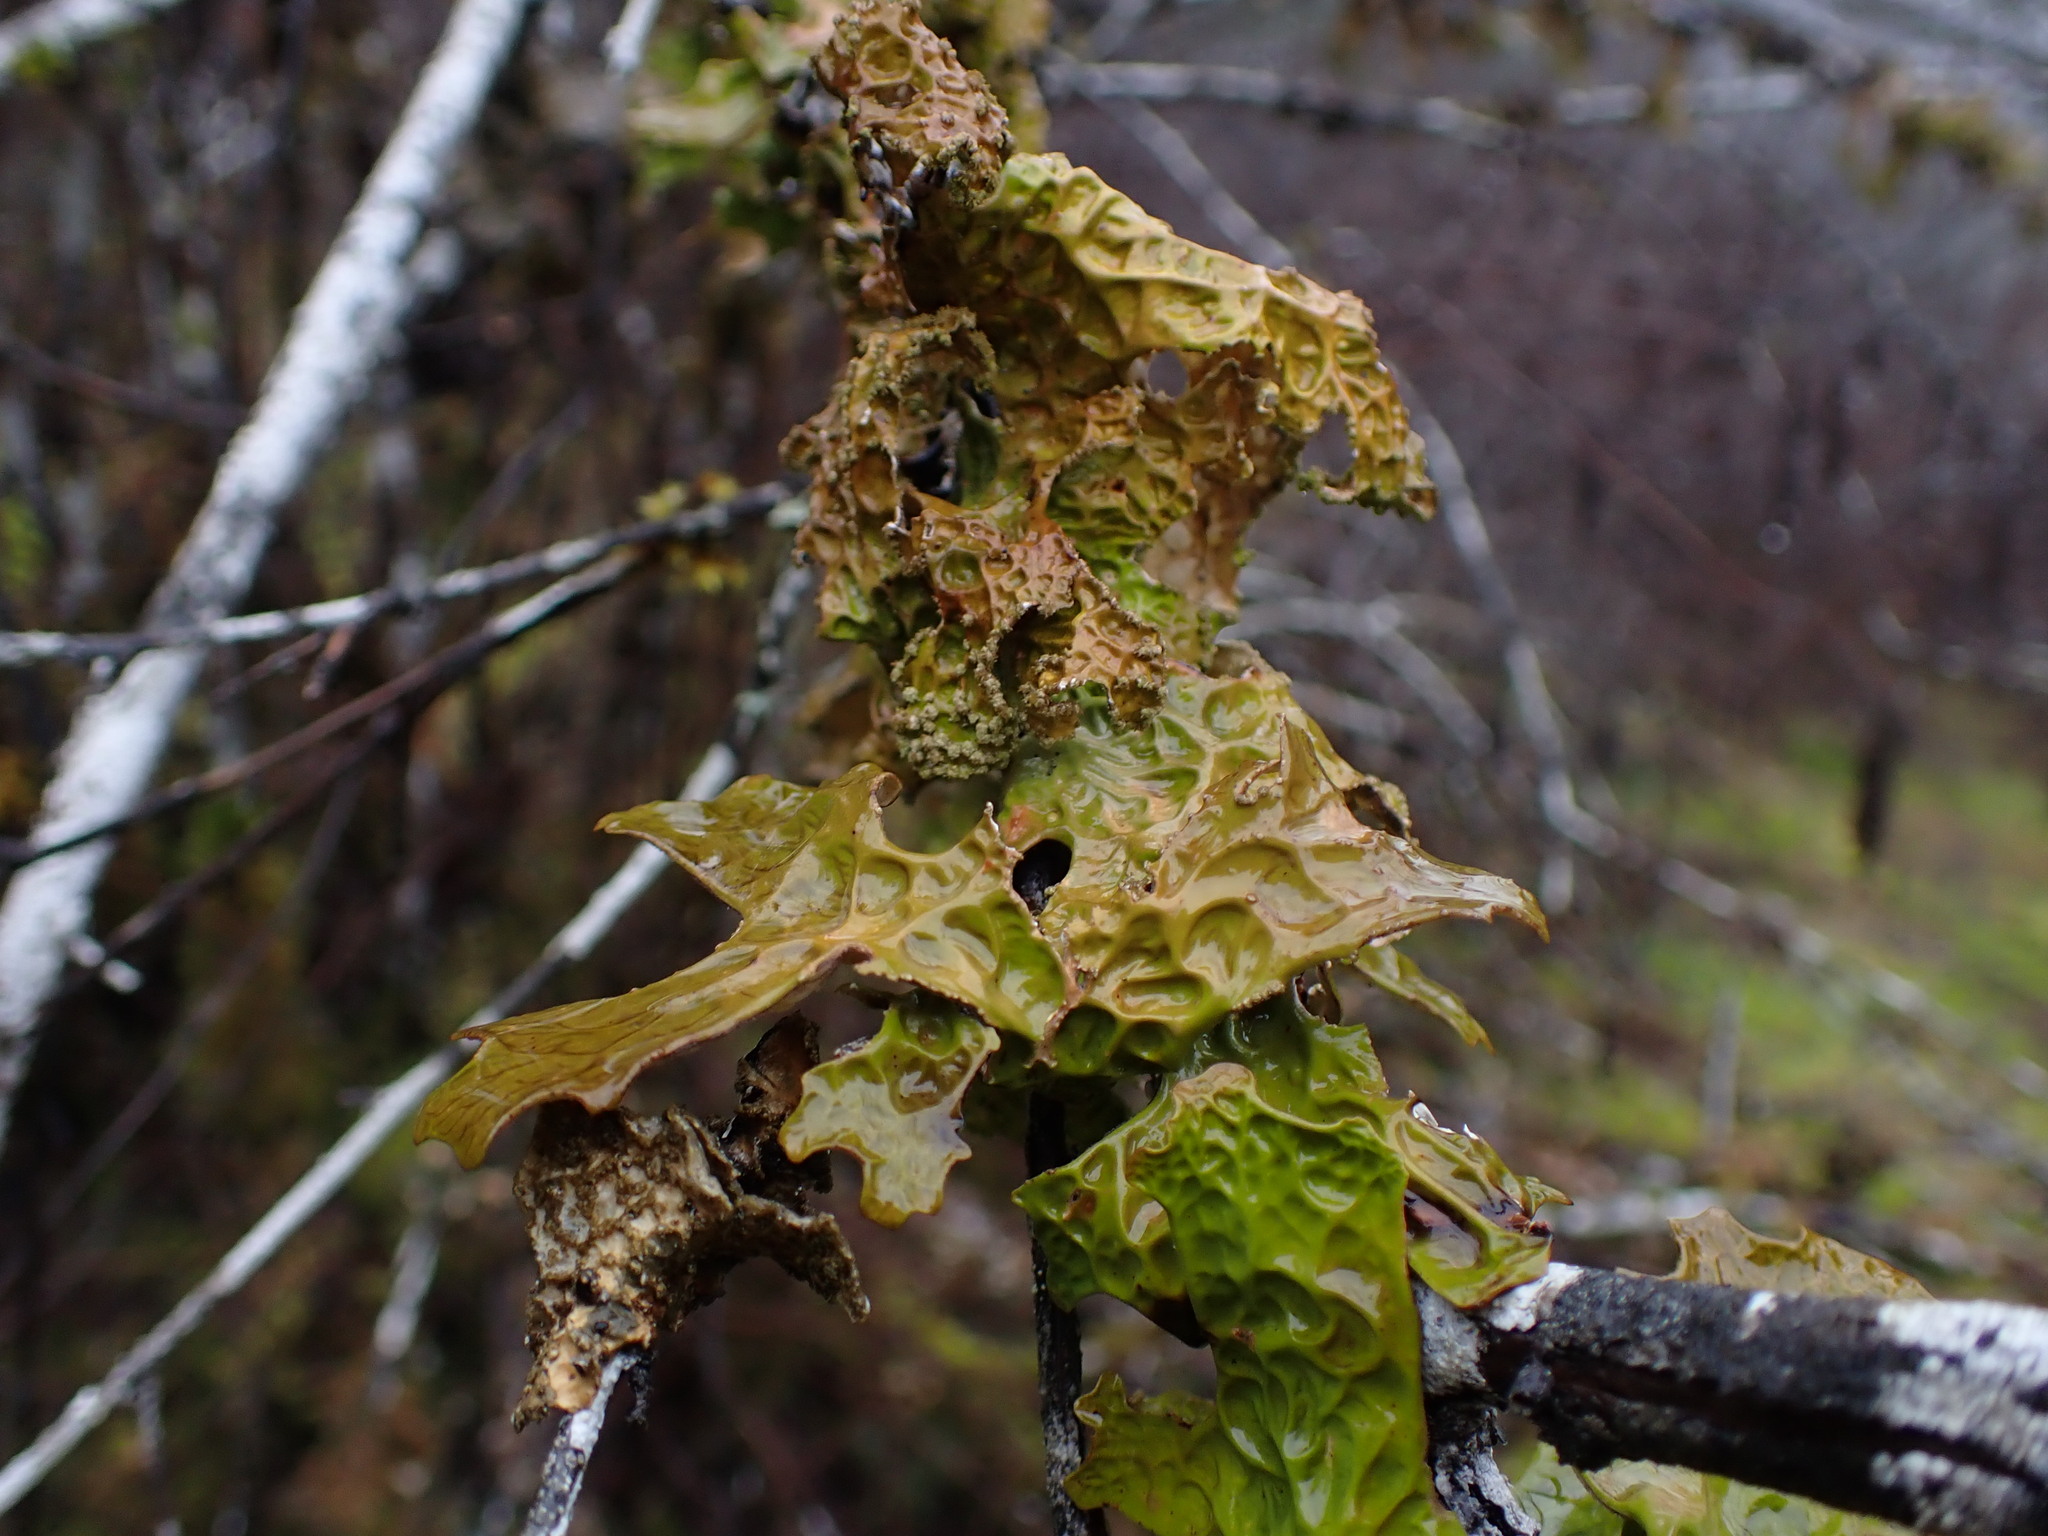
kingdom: Fungi
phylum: Ascomycota
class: Lecanoromycetes
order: Peltigerales
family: Lobariaceae
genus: Lobaria
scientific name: Lobaria pulmonaria
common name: Lungwort
